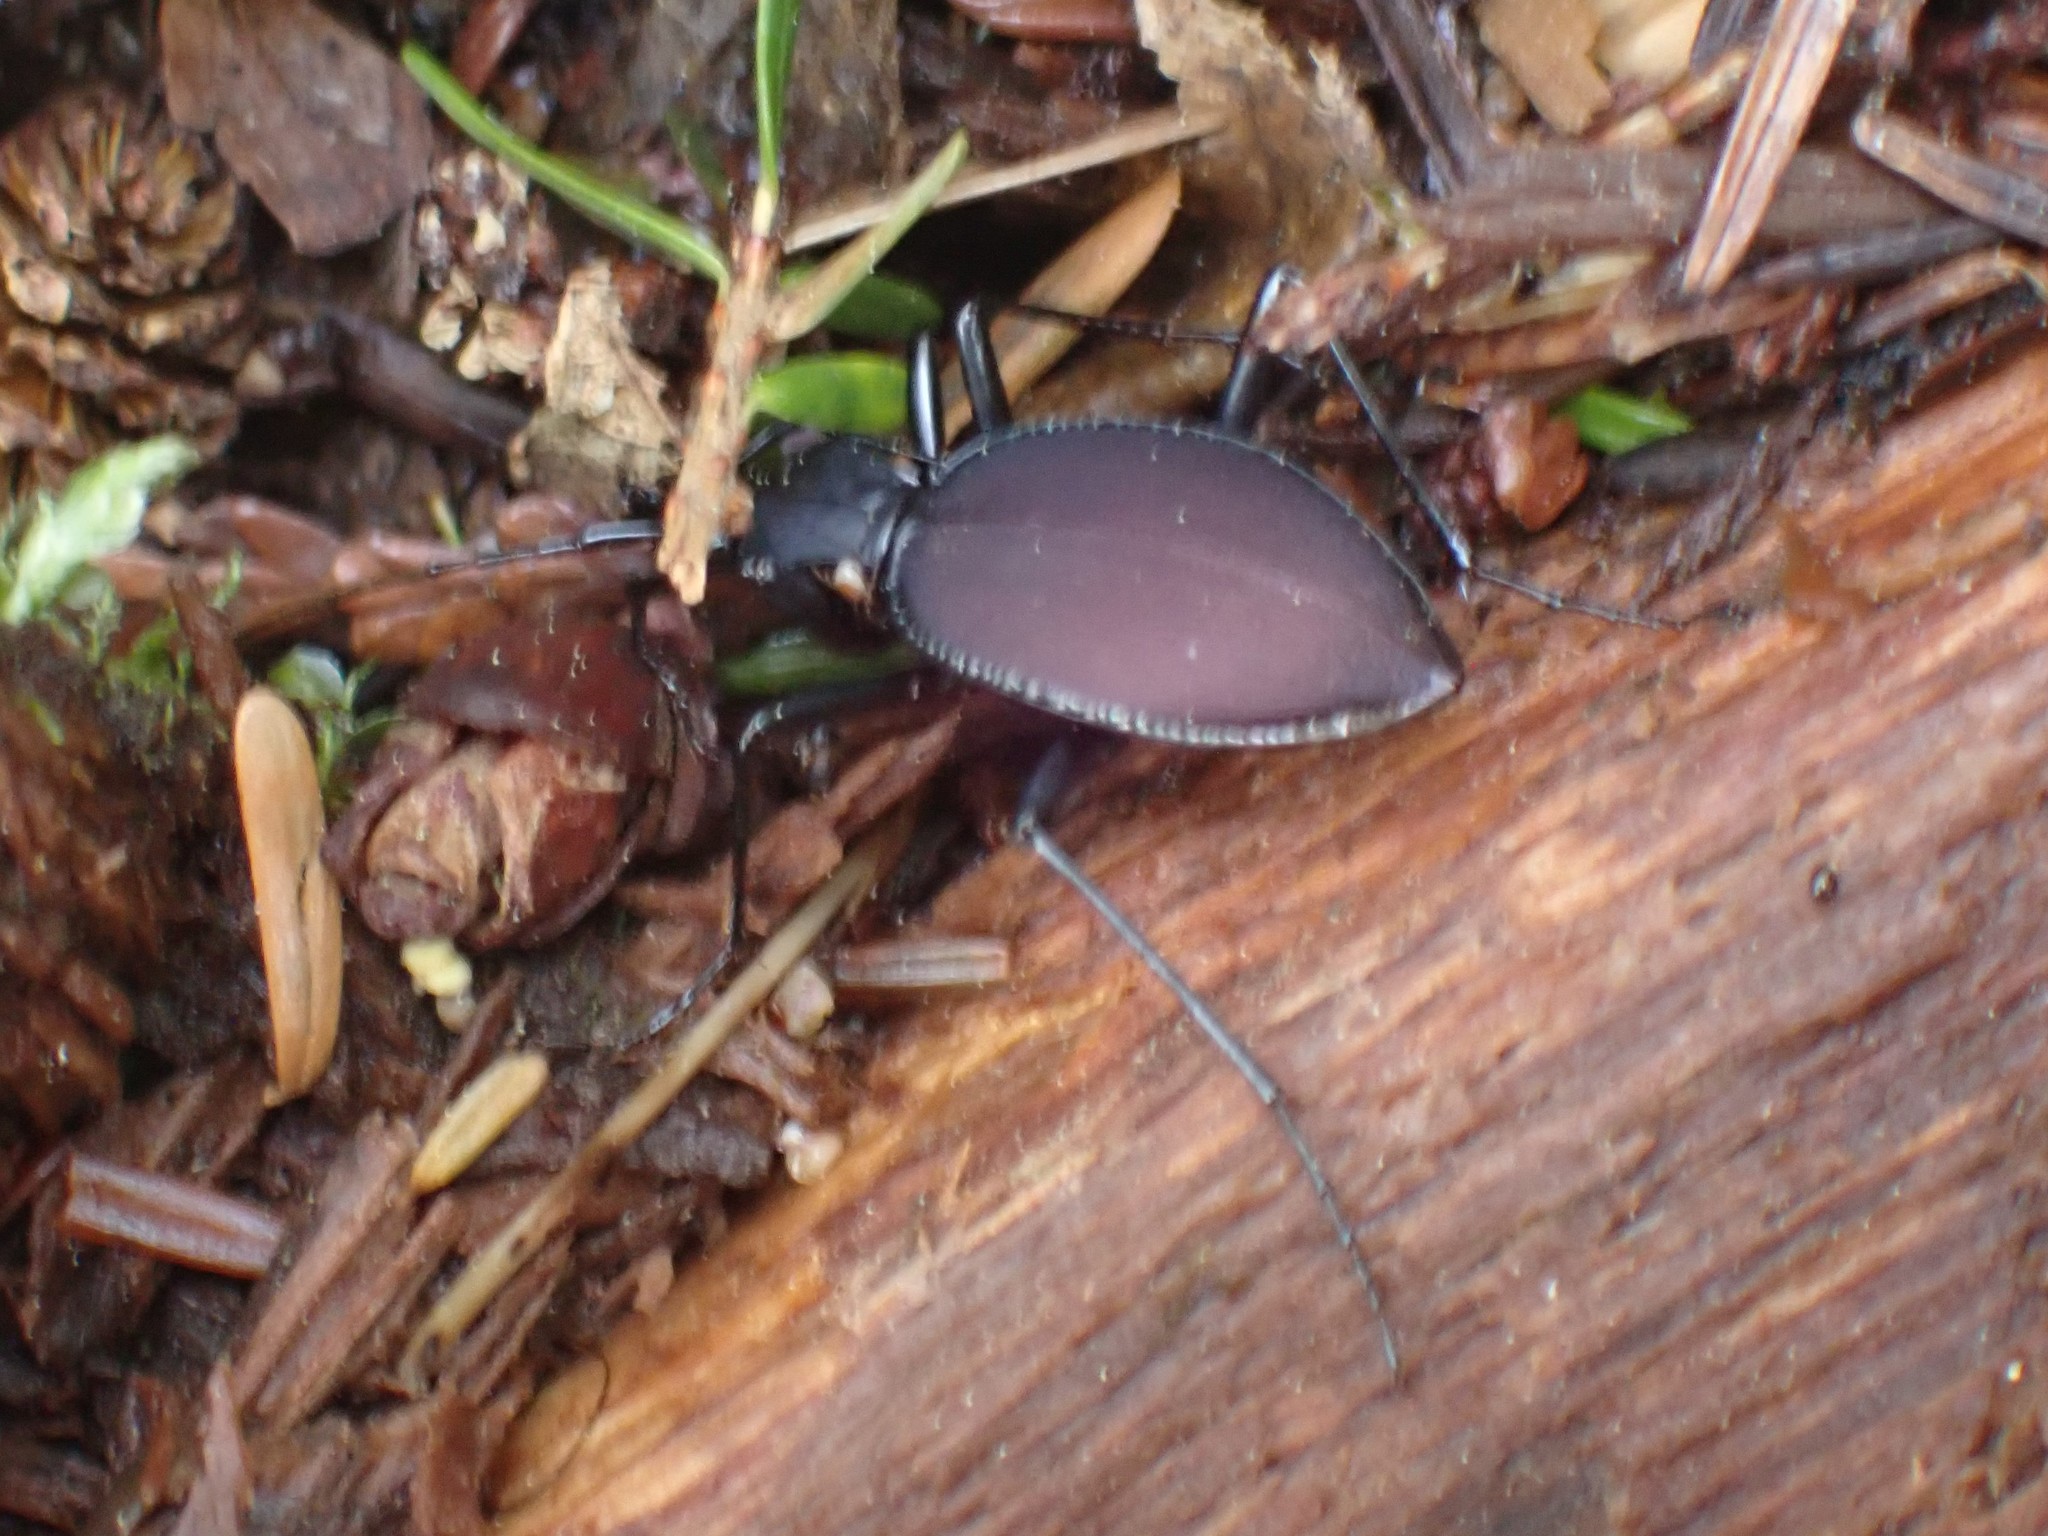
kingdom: Animalia
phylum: Arthropoda
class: Insecta
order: Coleoptera
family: Carabidae
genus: Scaphinotus
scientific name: Scaphinotus angusticollis
